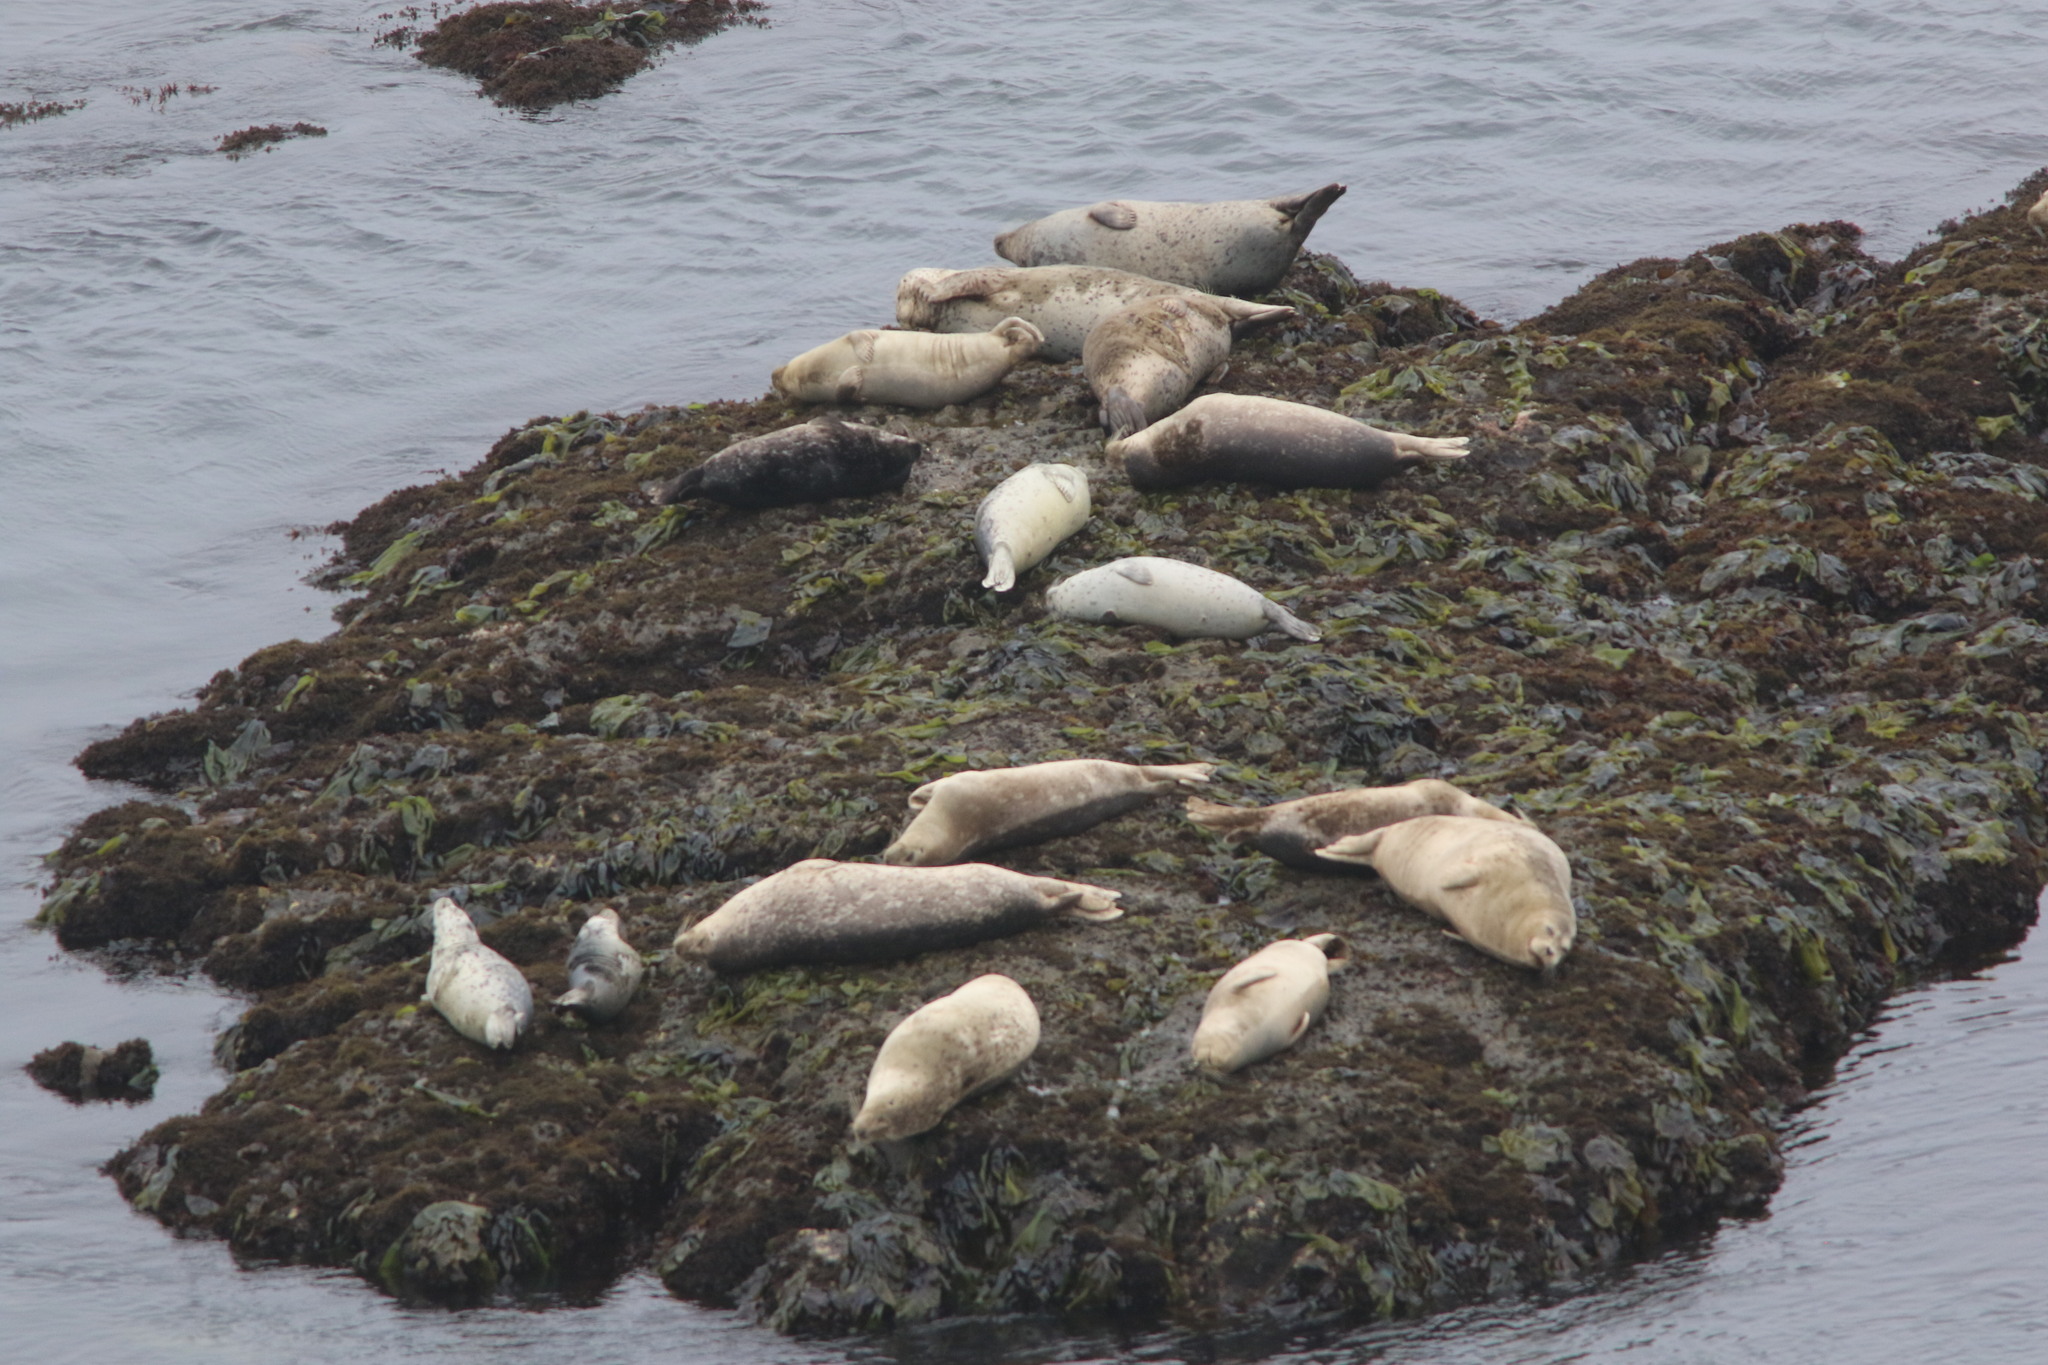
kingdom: Animalia
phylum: Chordata
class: Mammalia
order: Carnivora
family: Phocidae
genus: Phoca
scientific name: Phoca vitulina
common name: Harbor seal
